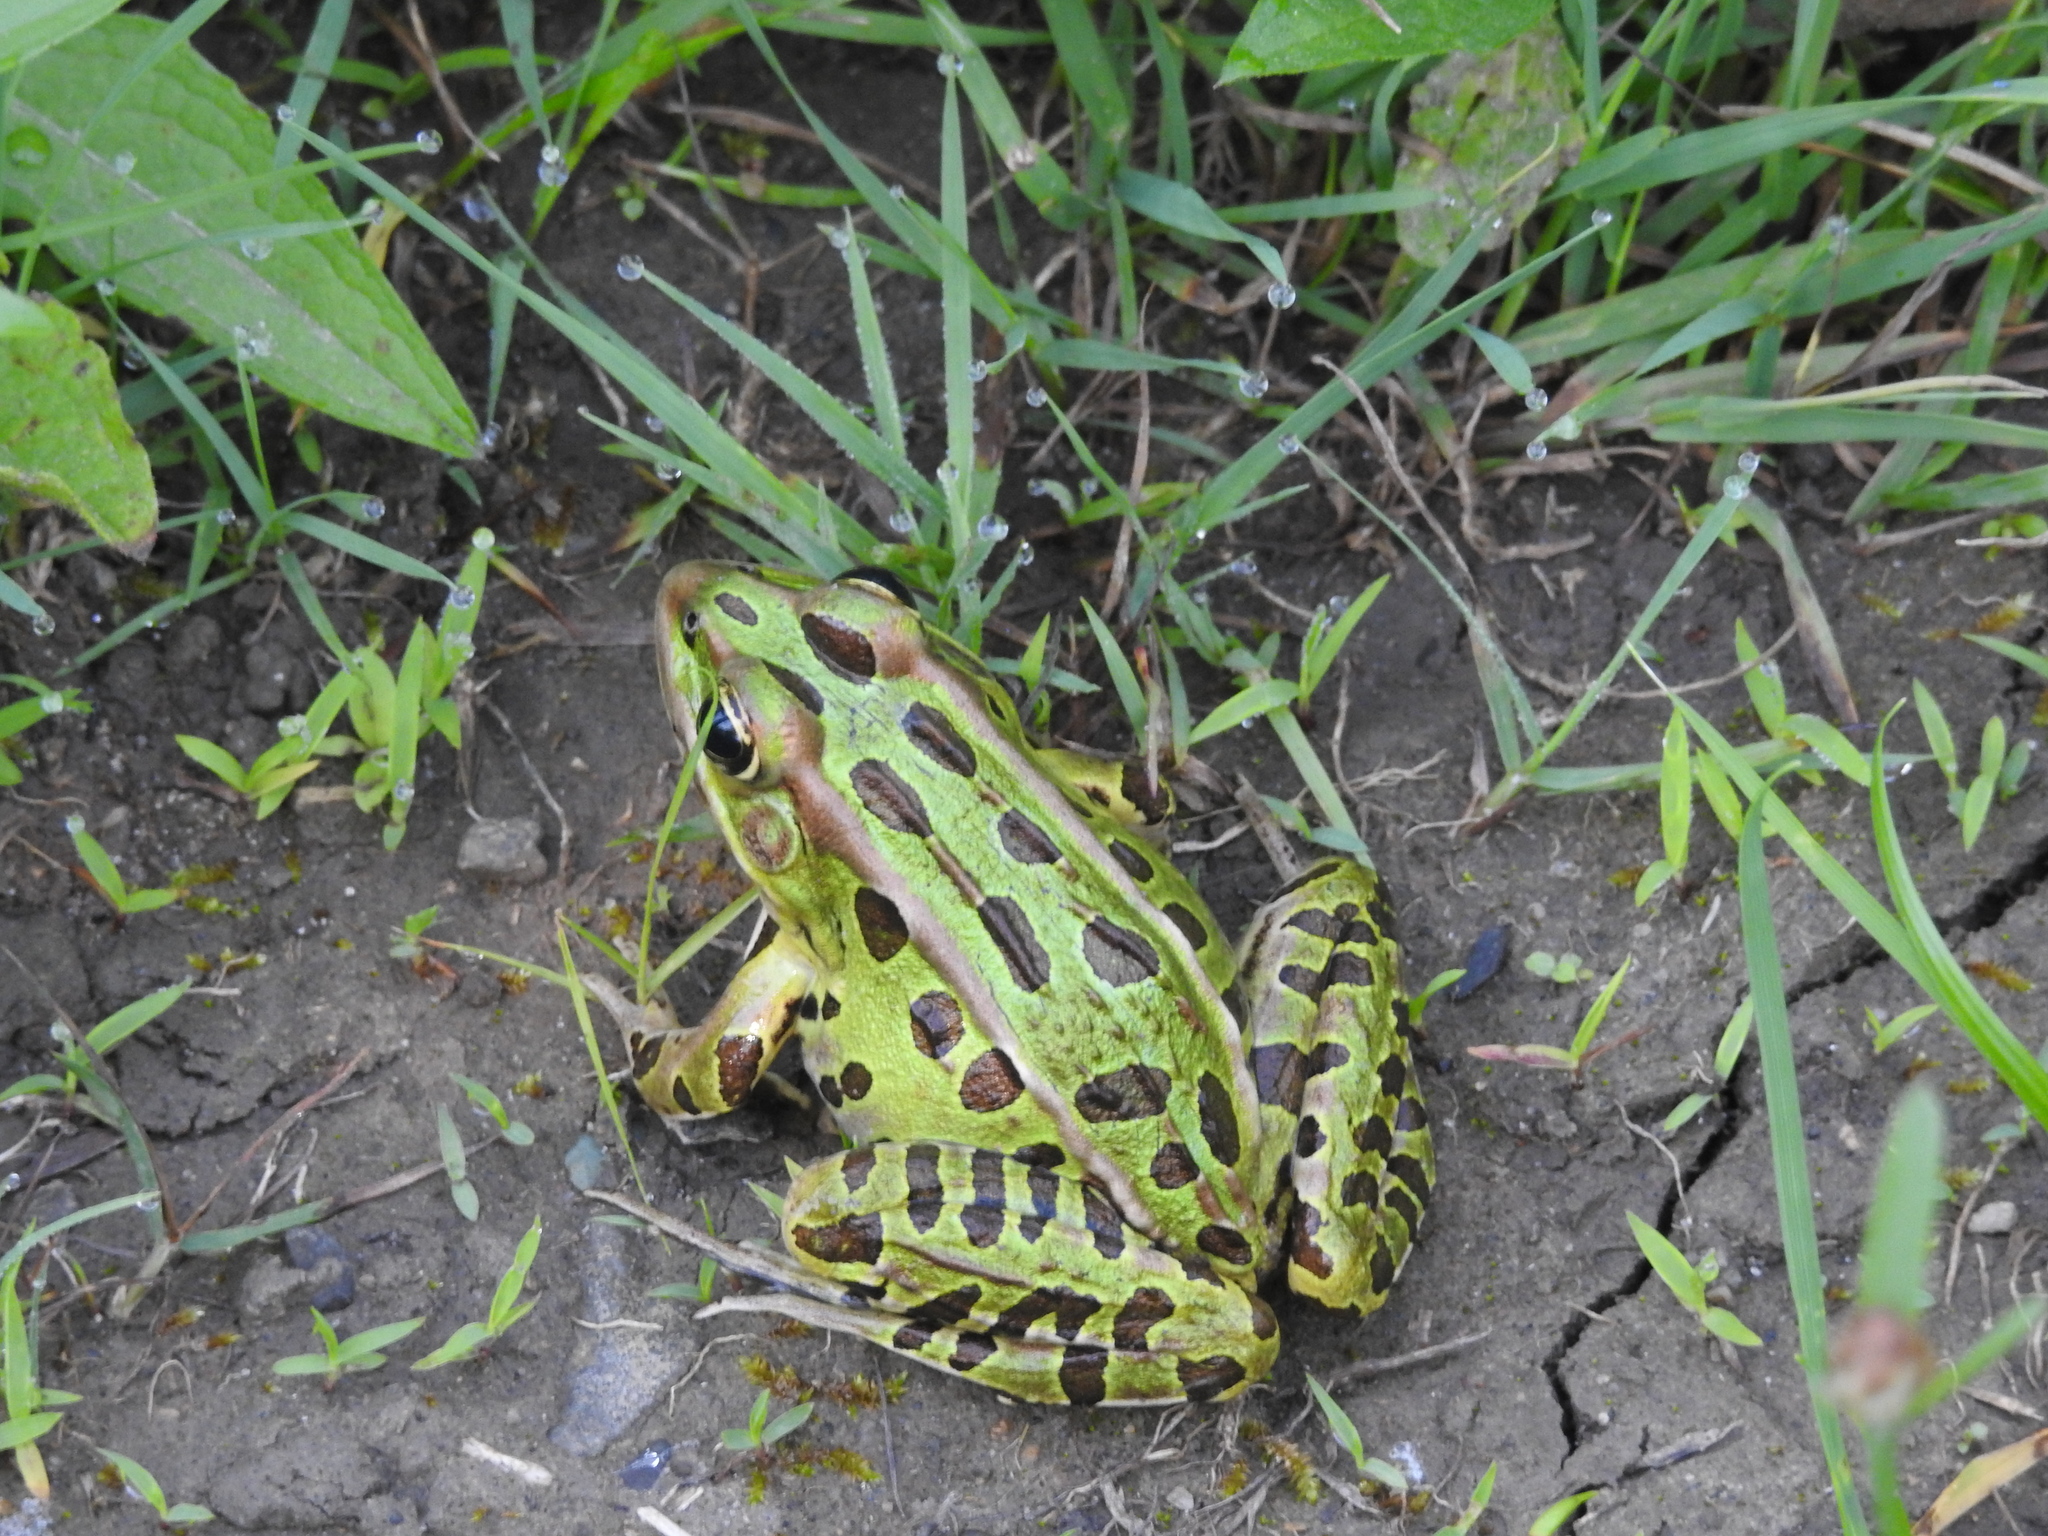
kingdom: Animalia
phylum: Chordata
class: Amphibia
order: Anura
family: Ranidae
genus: Lithobates
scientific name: Lithobates pipiens
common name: Northern leopard frog
